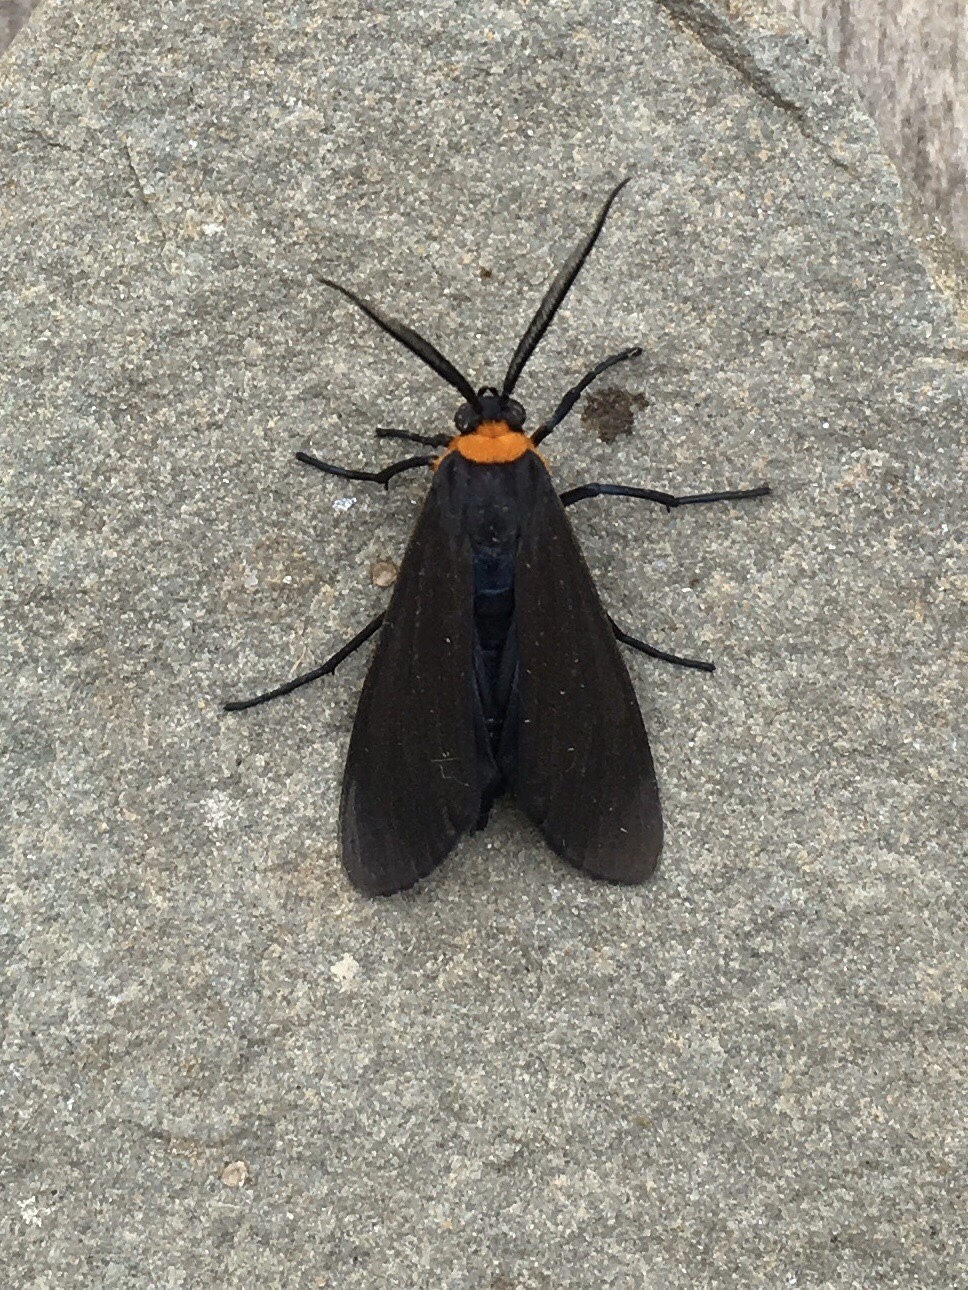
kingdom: Animalia
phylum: Arthropoda
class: Insecta
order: Lepidoptera
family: Erebidae
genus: Cisseps
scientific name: Cisseps fulvicollis
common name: Yellow-collared scape moth
